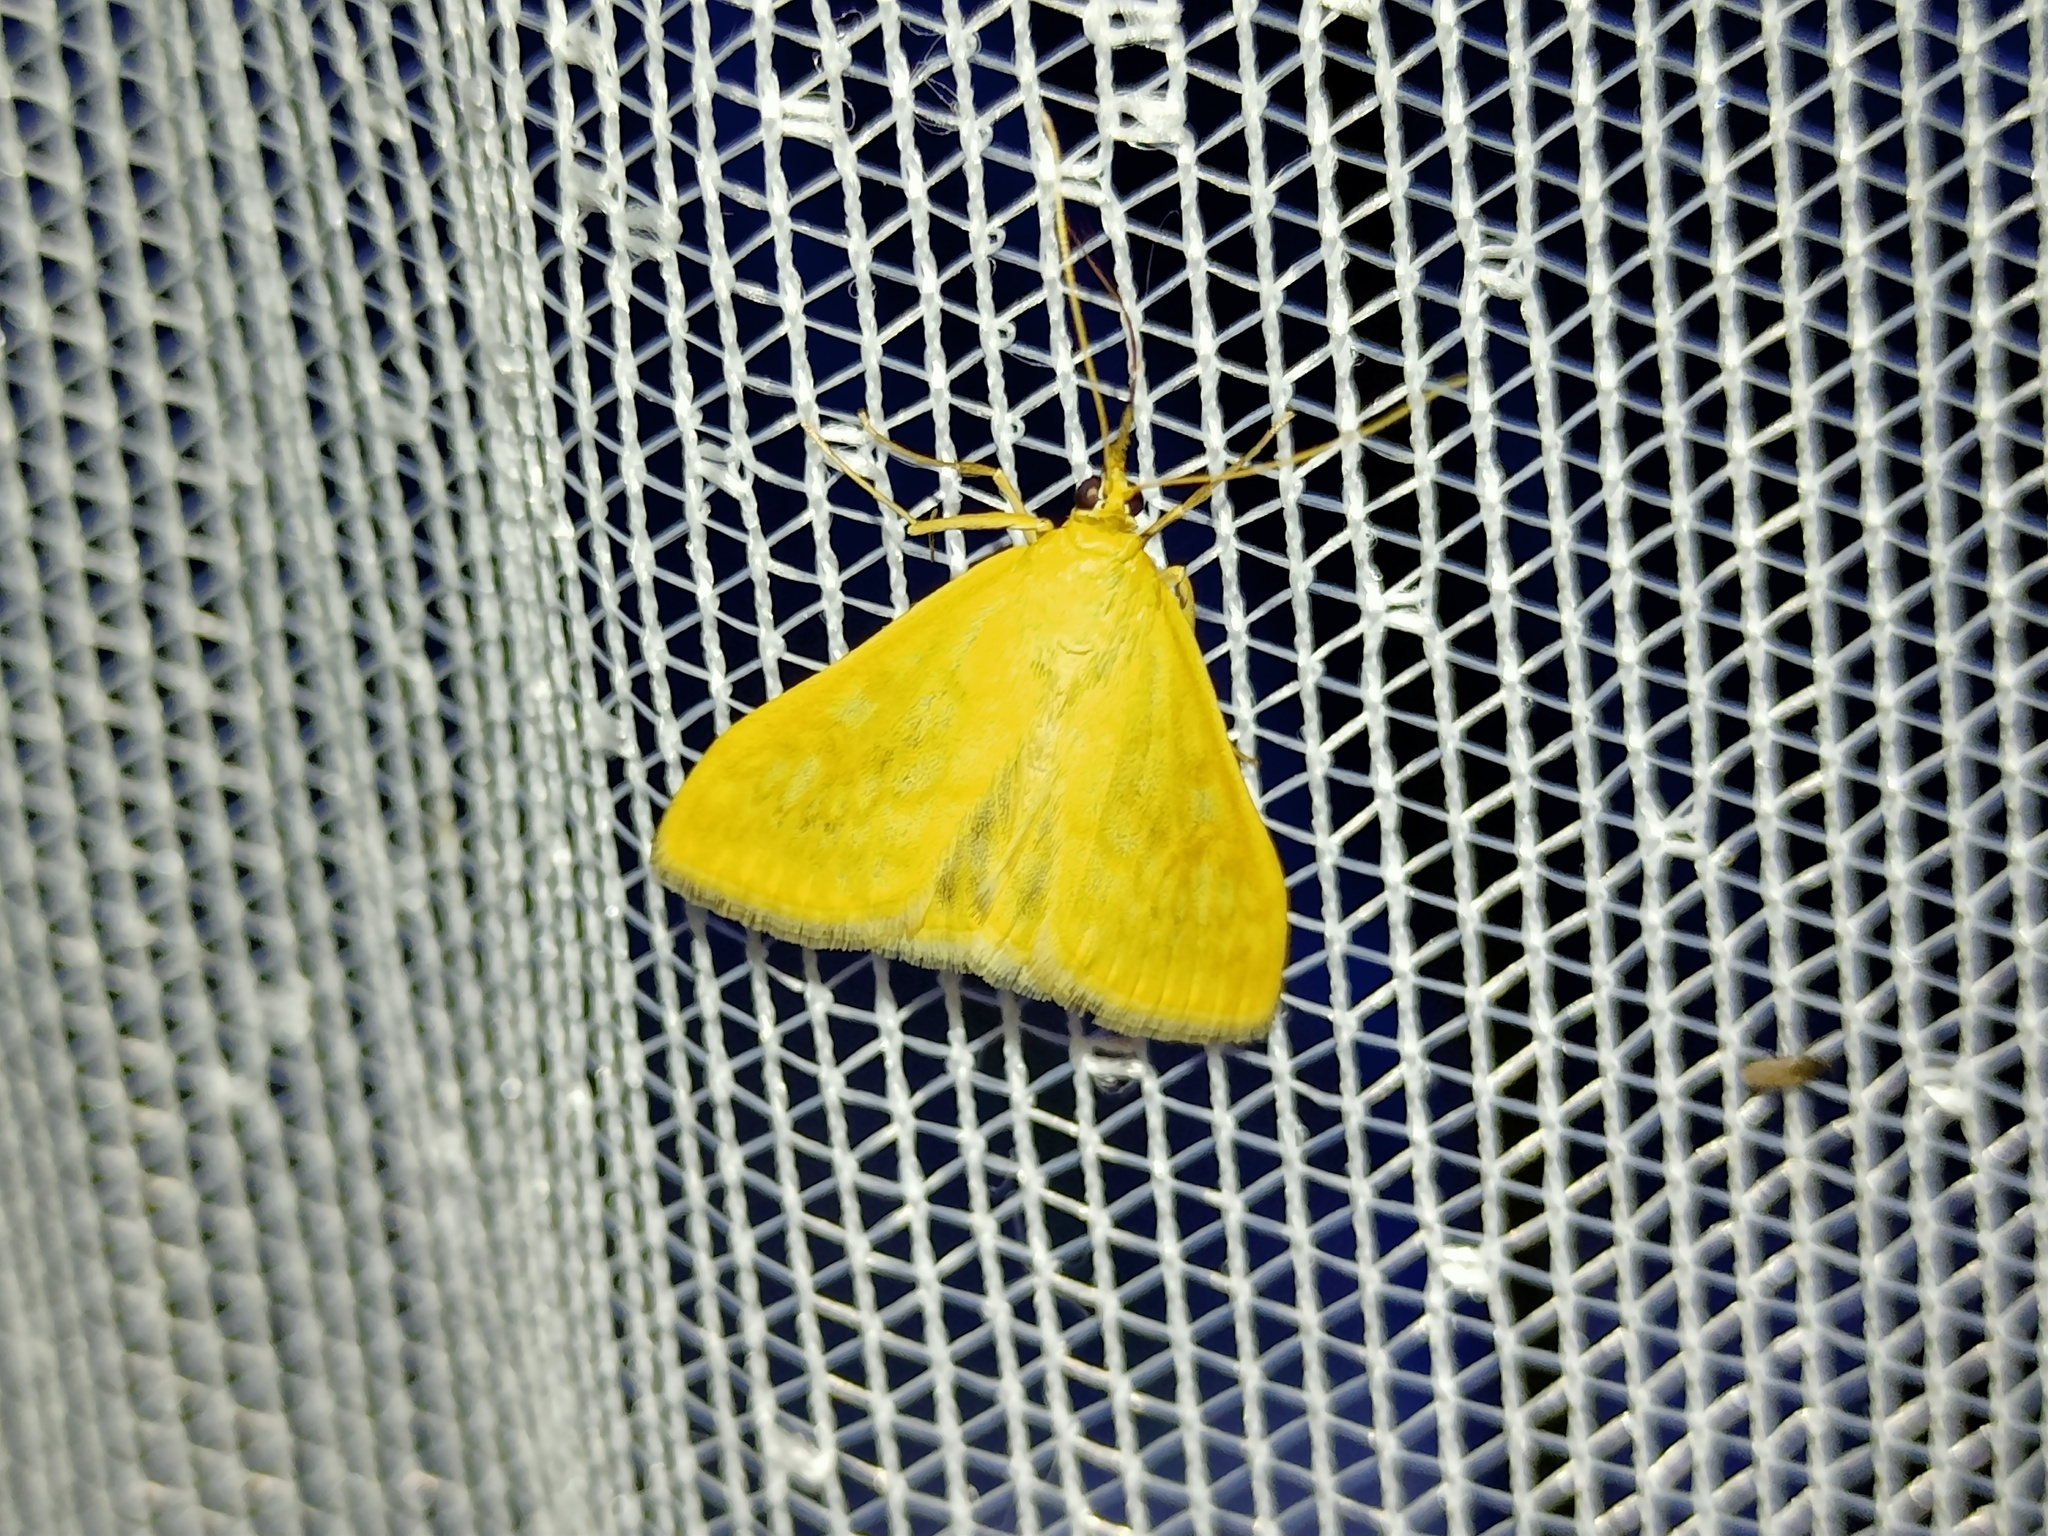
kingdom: Animalia
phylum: Arthropoda
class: Insecta
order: Lepidoptera
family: Crambidae
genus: Sitochroa
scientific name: Sitochroa verticalis
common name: Lesser pearl
